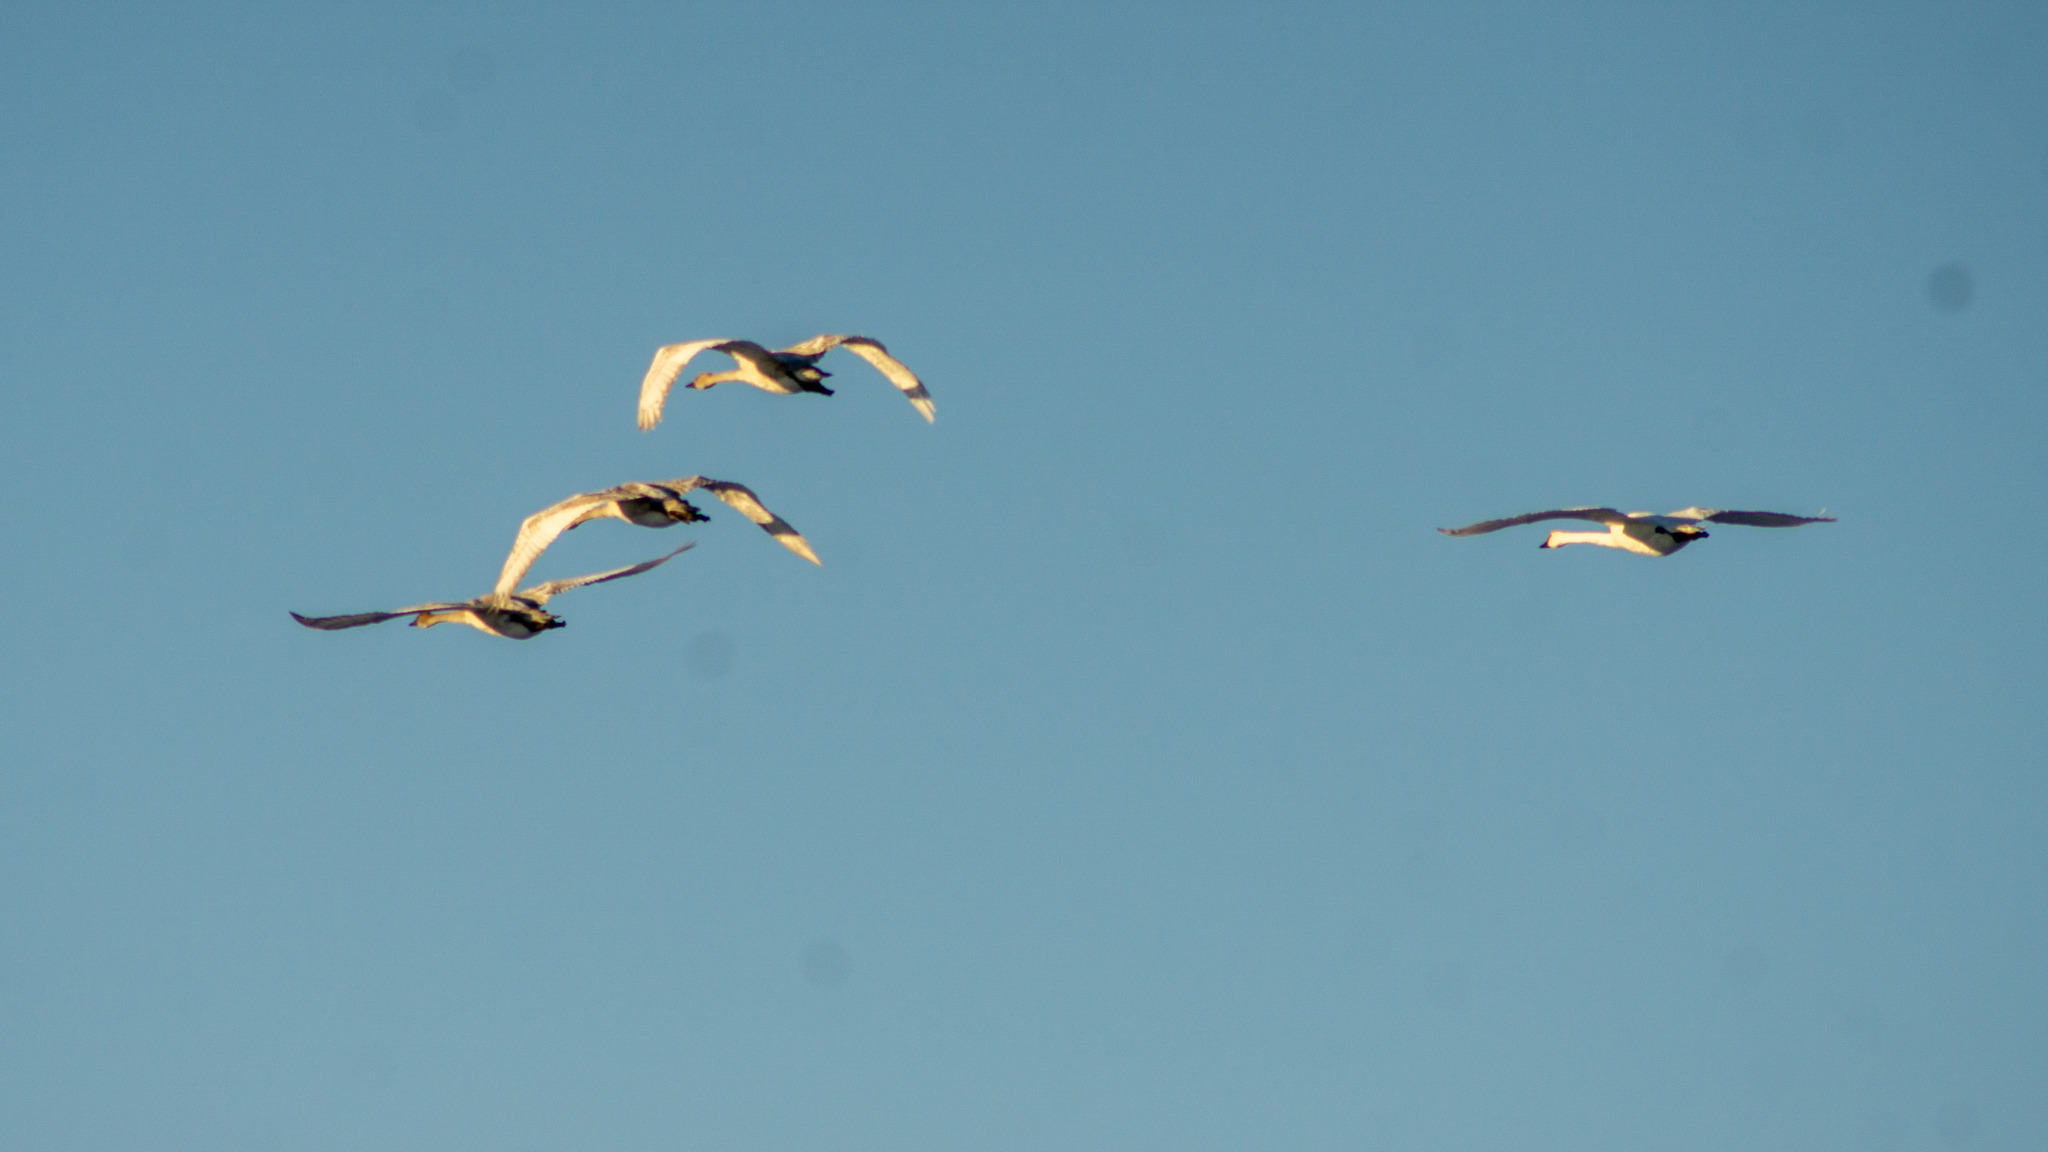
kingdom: Animalia
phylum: Chordata
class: Aves
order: Anseriformes
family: Anatidae
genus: Cygnus
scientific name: Cygnus buccinator
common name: Trumpeter swan
